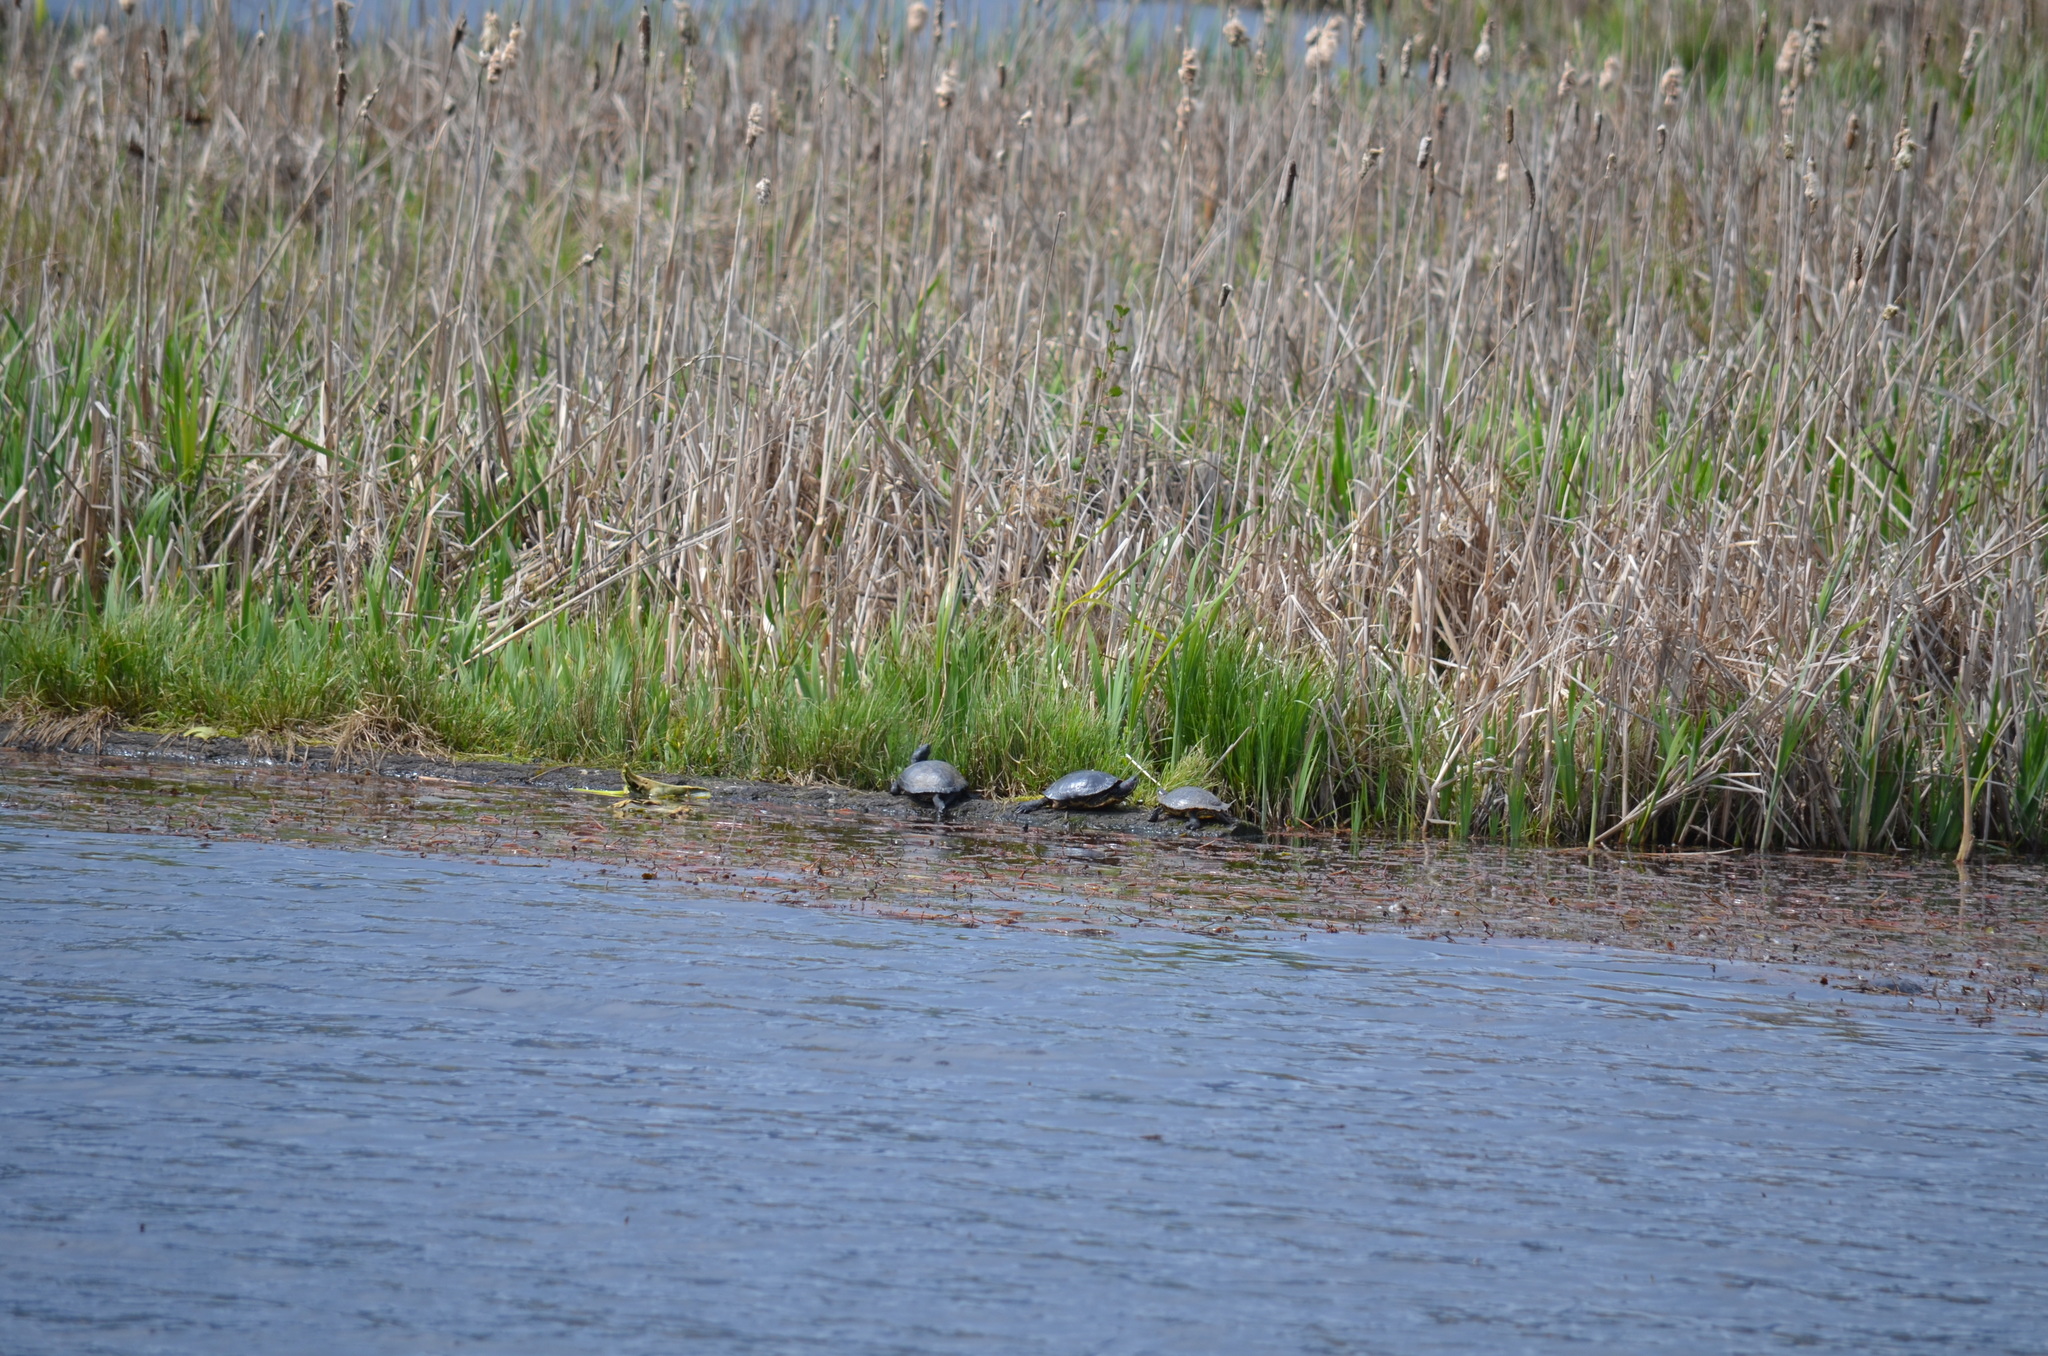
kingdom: Animalia
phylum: Chordata
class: Testudines
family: Emydidae
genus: Trachemys
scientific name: Trachemys scripta
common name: Slider
